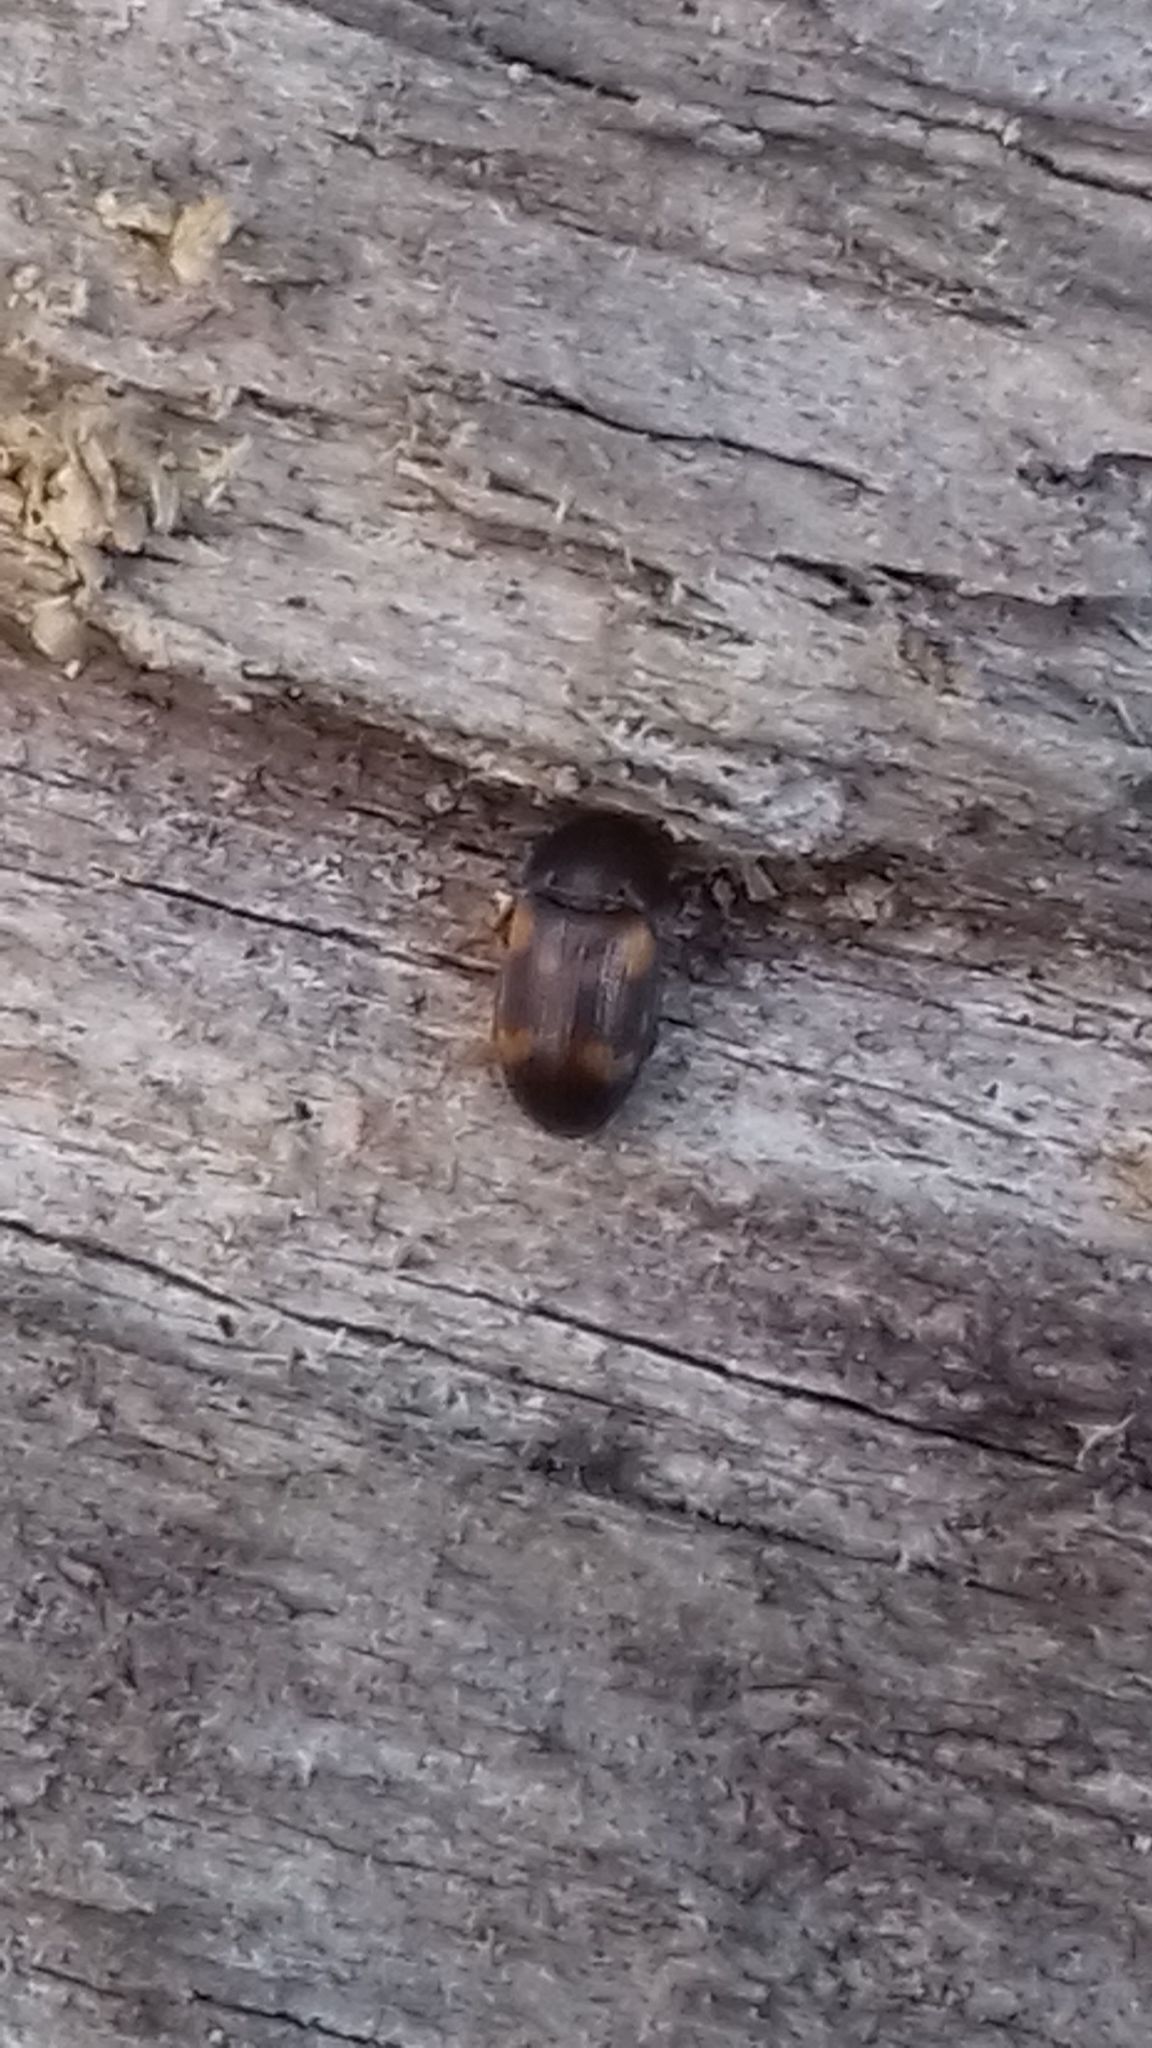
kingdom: Animalia
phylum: Arthropoda
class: Insecta
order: Coleoptera
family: Mycetophagidae
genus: Mycetophagus
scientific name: Mycetophagus quadriguttatus
